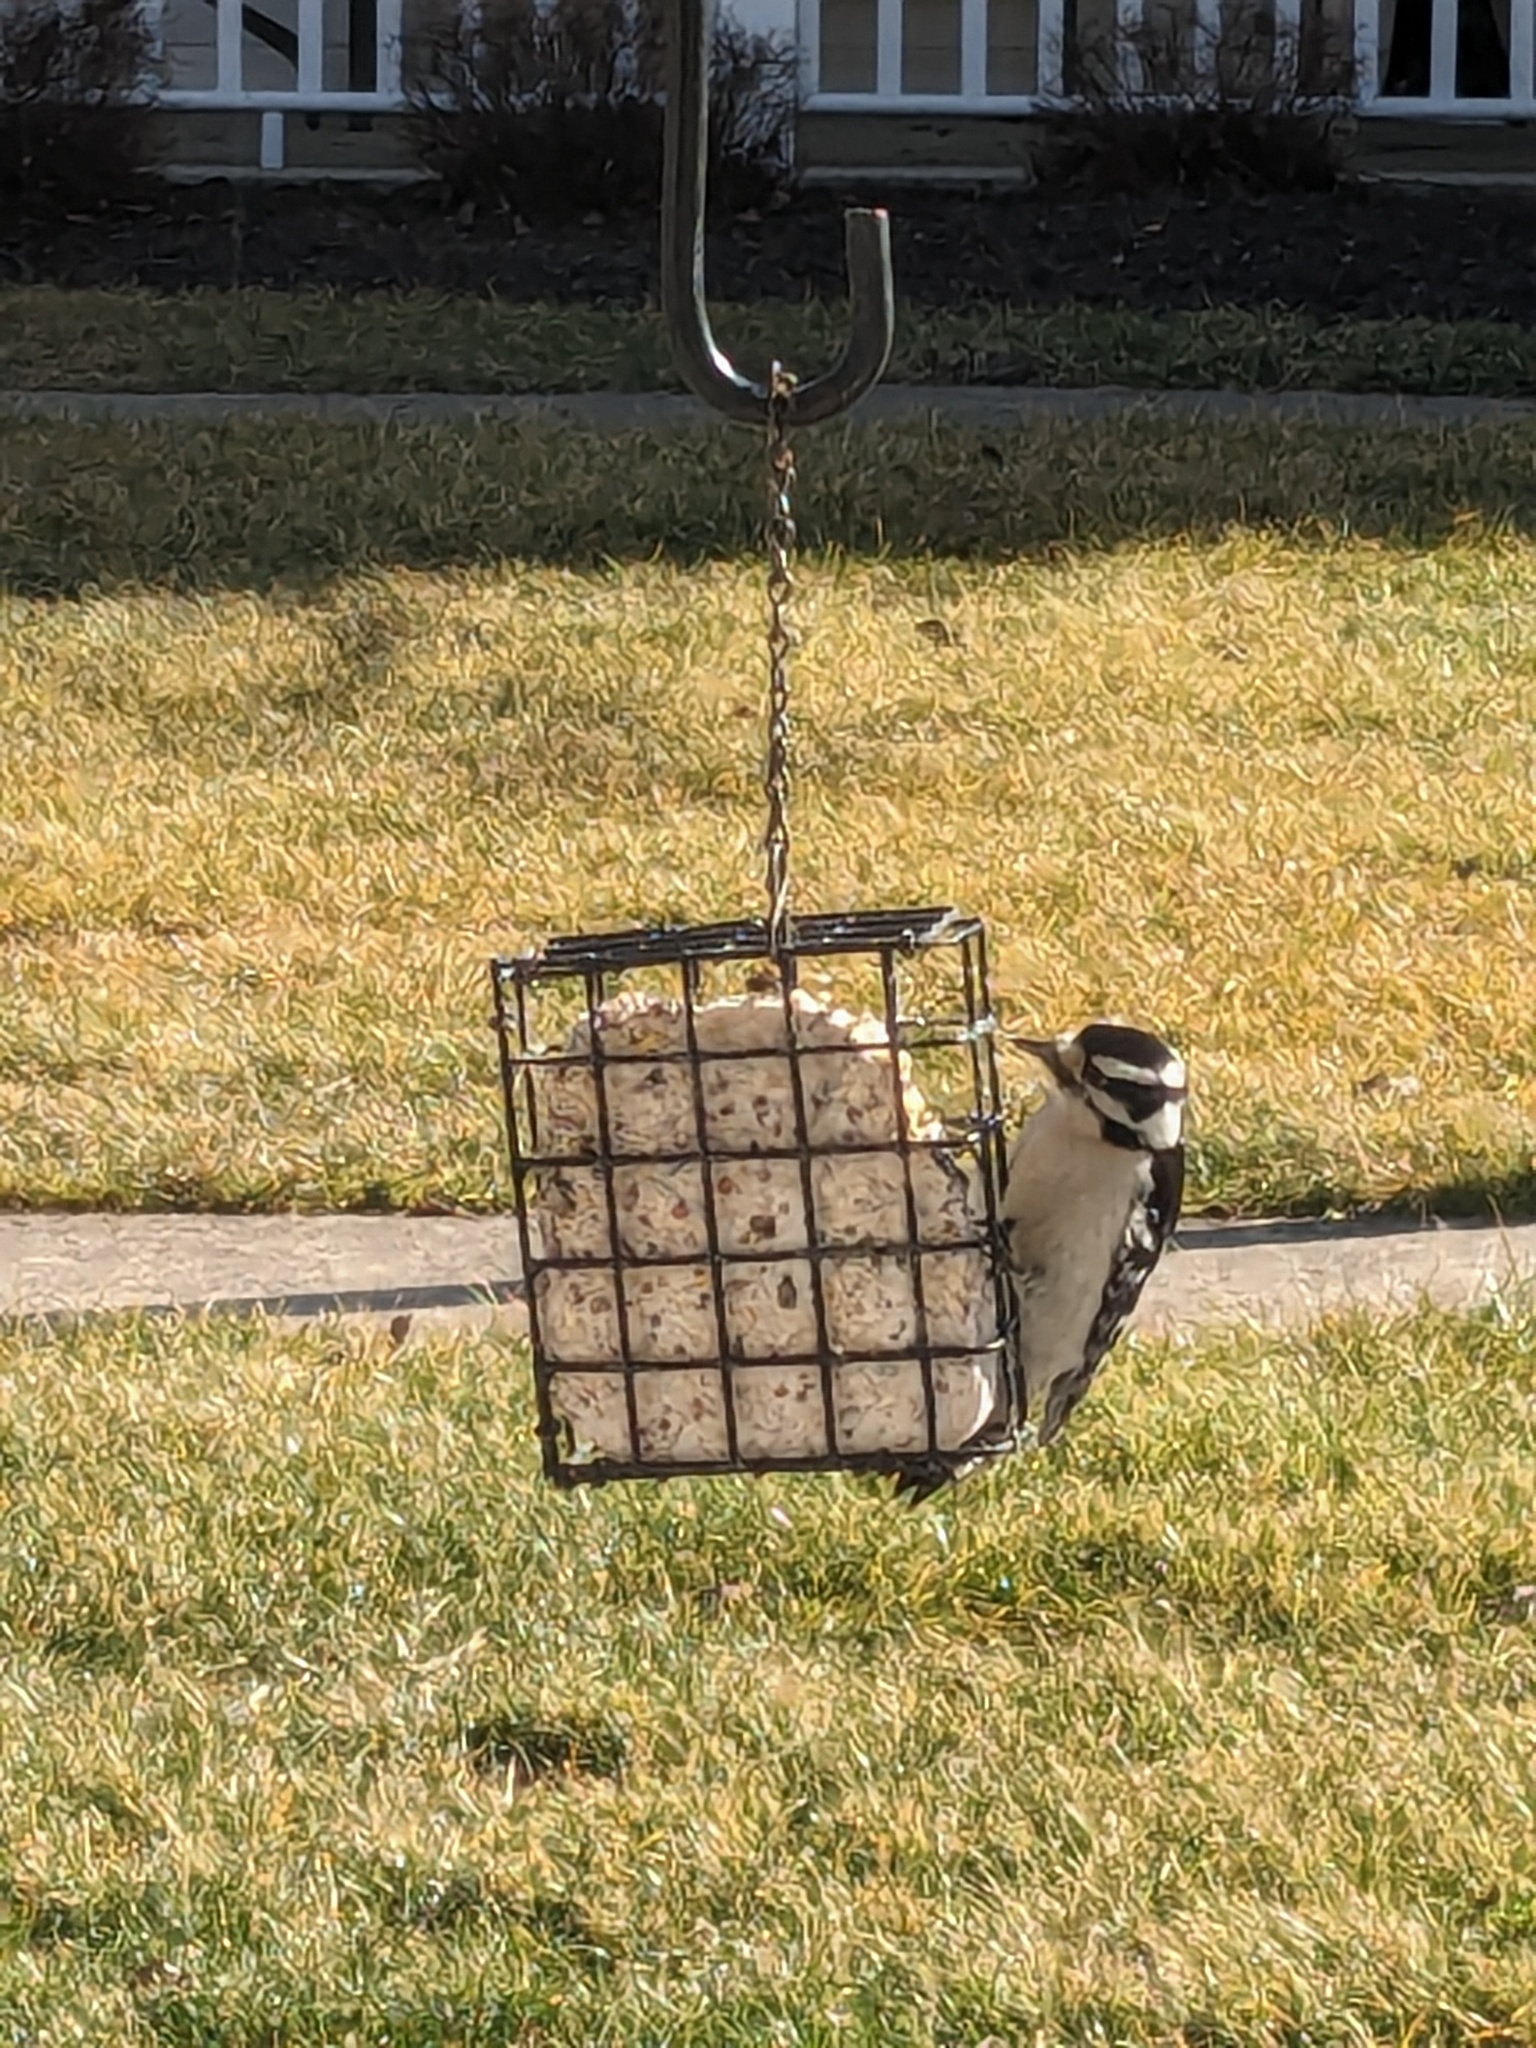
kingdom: Animalia
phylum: Chordata
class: Aves
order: Piciformes
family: Picidae
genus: Dryobates
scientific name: Dryobates pubescens
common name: Downy woodpecker
